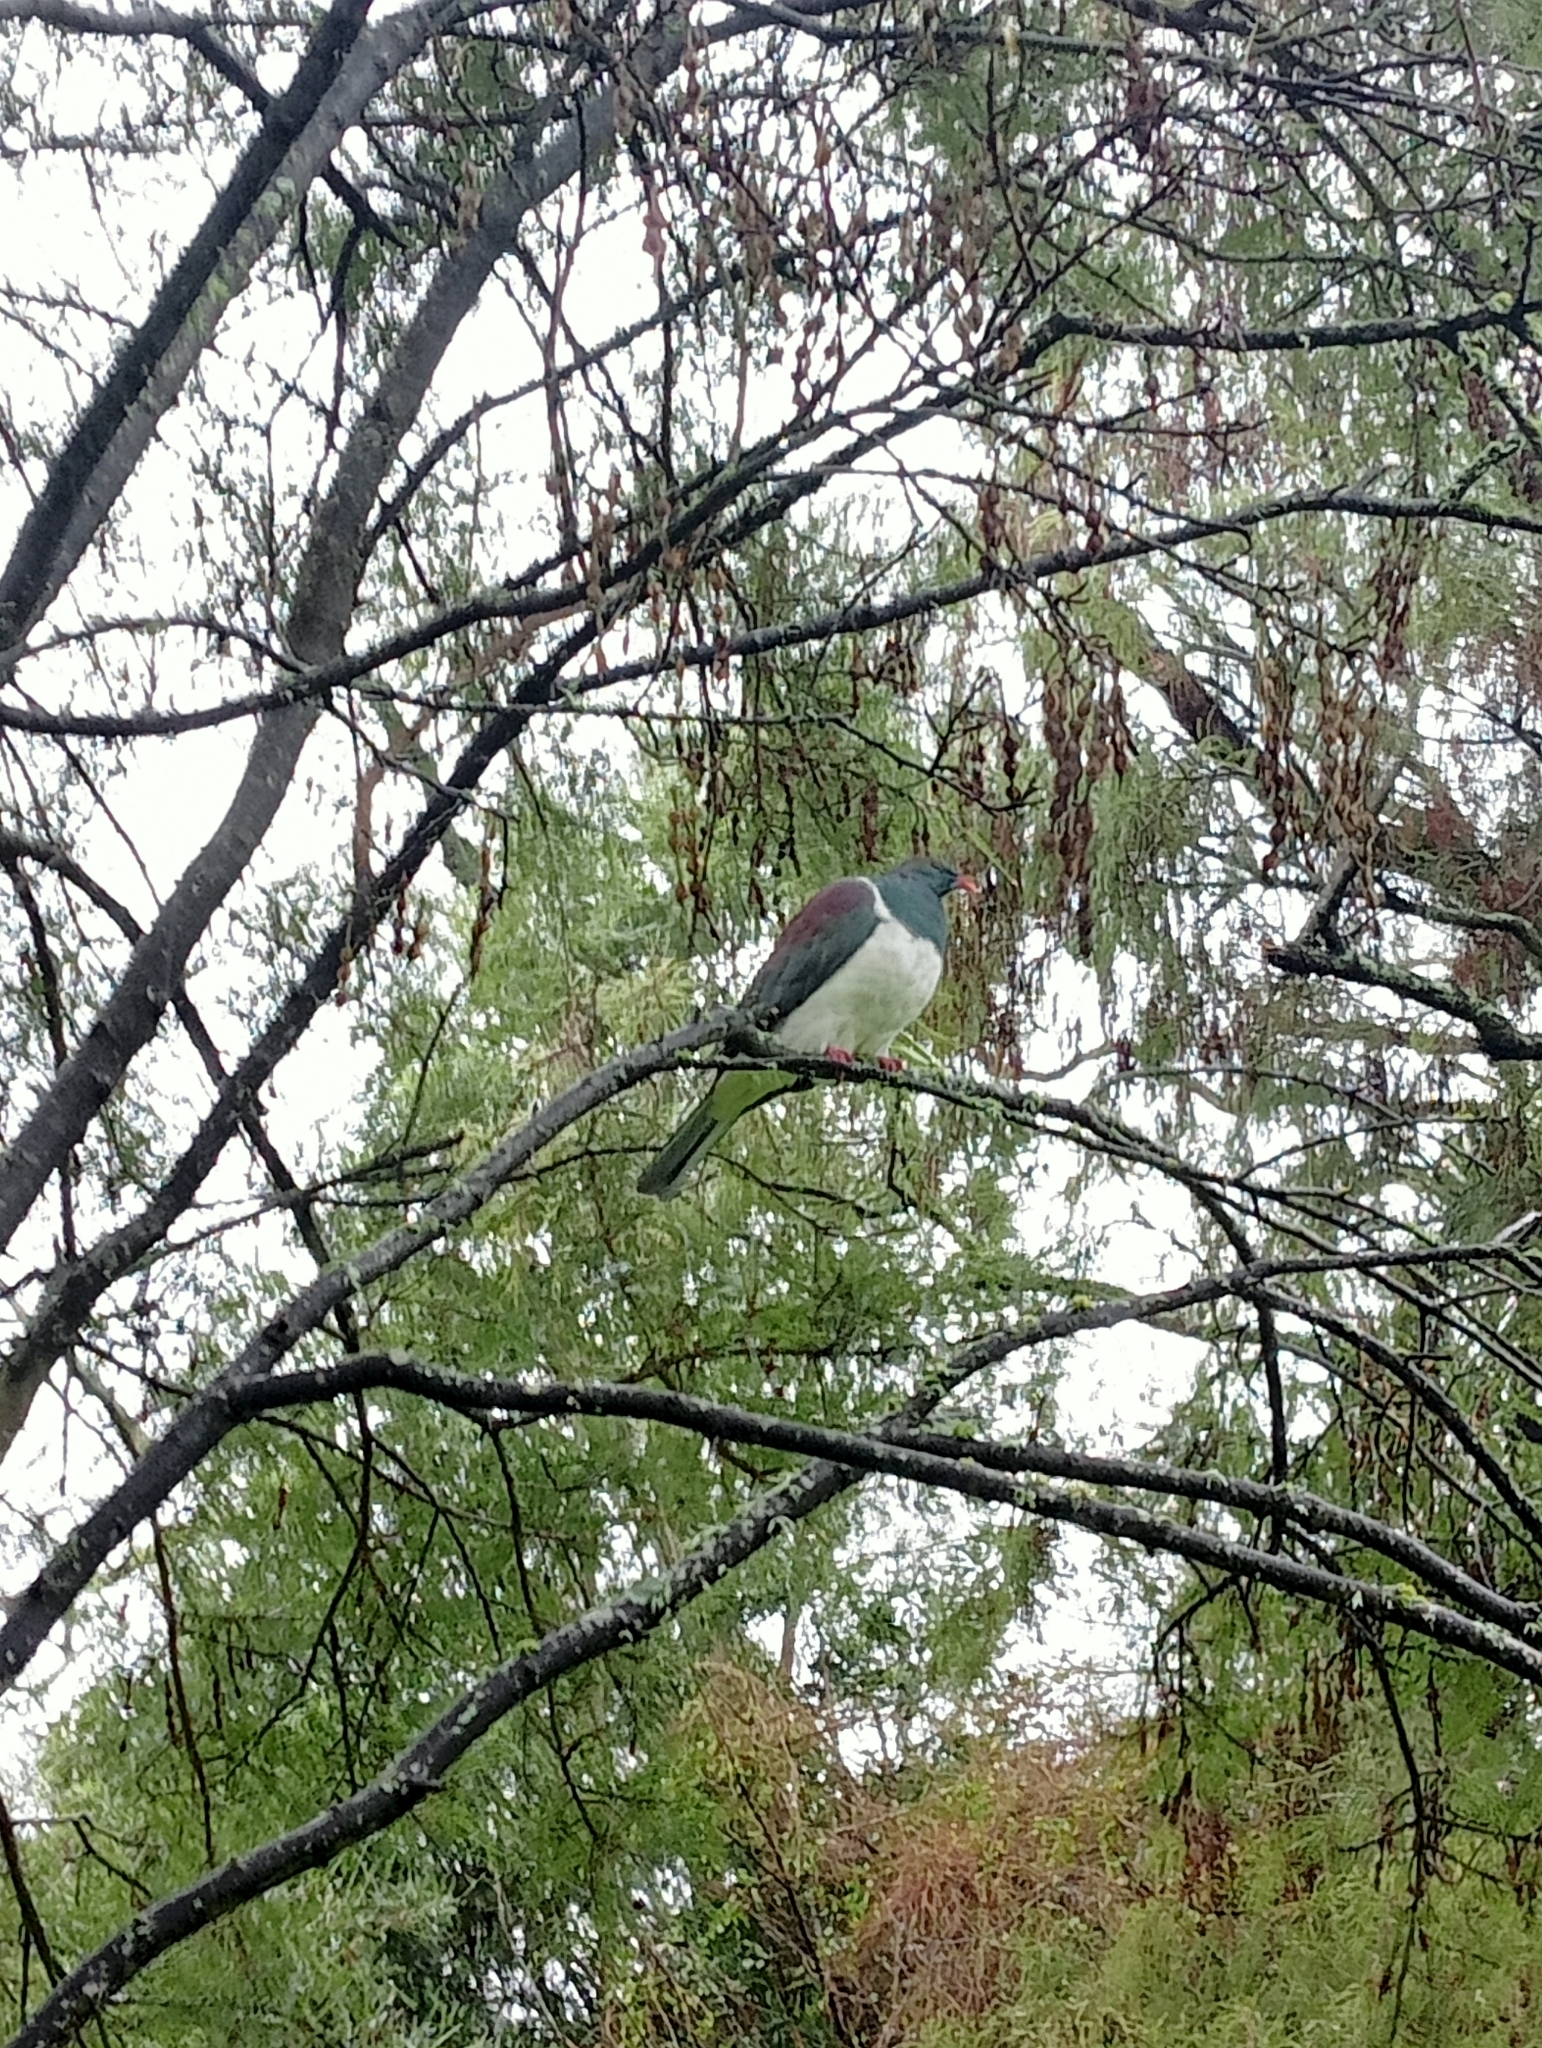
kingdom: Animalia
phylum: Chordata
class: Aves
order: Columbiformes
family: Columbidae
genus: Hemiphaga
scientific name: Hemiphaga novaeseelandiae
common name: New zealand pigeon
